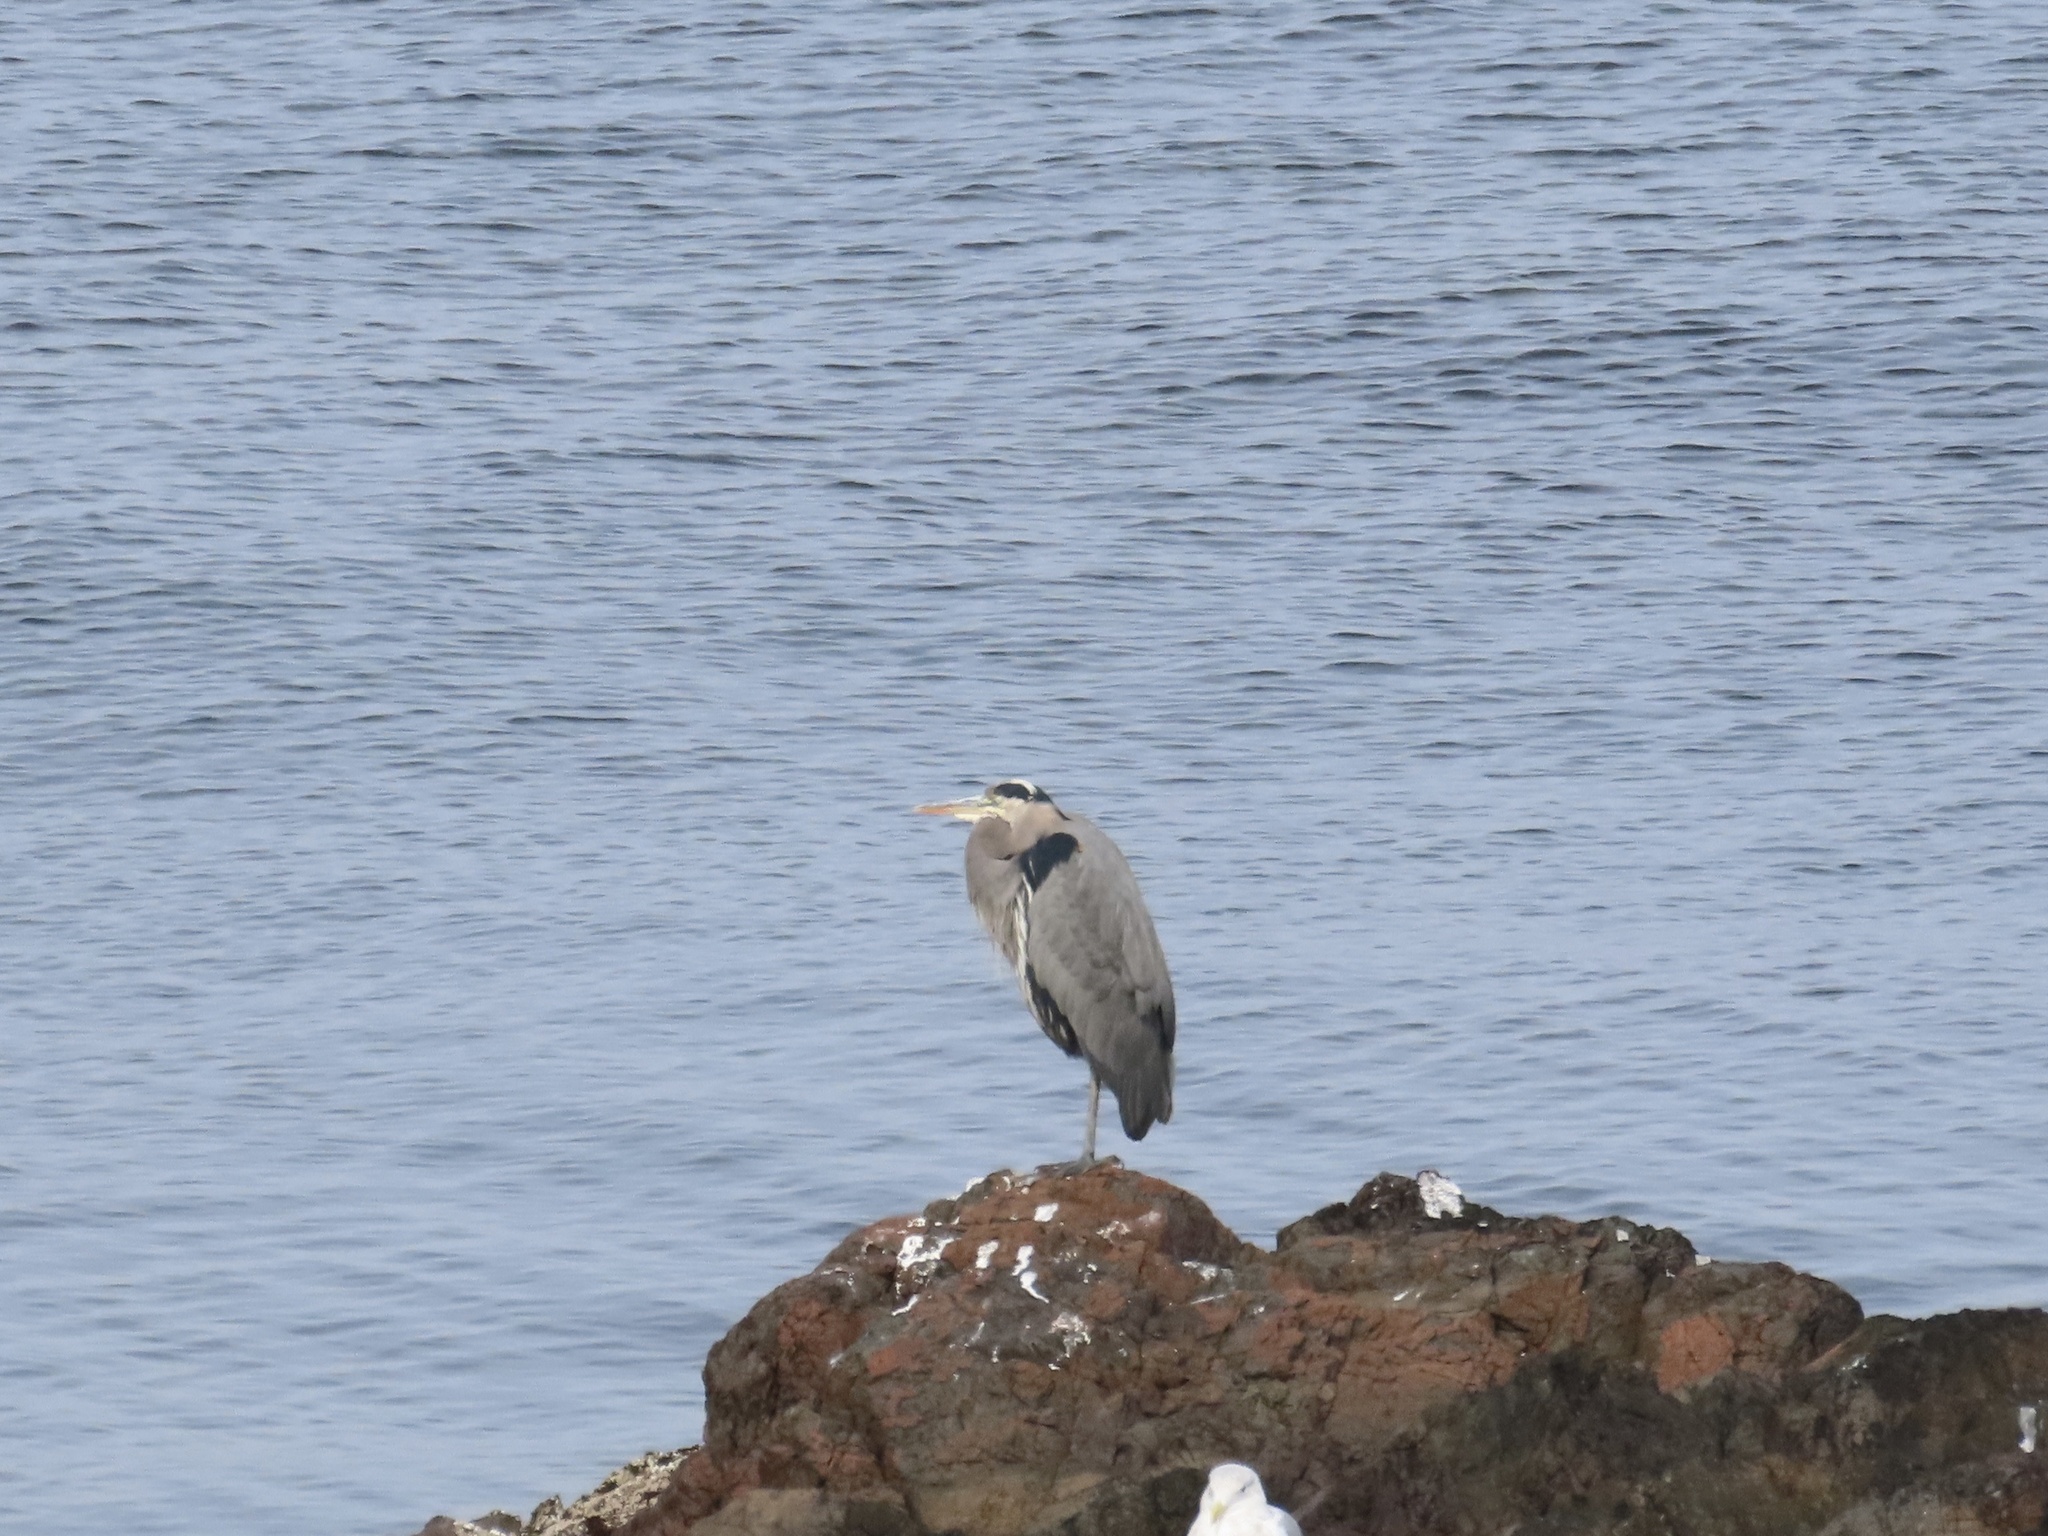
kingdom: Animalia
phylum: Chordata
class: Aves
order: Pelecaniformes
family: Ardeidae
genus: Ardea
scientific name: Ardea herodias
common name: Great blue heron
